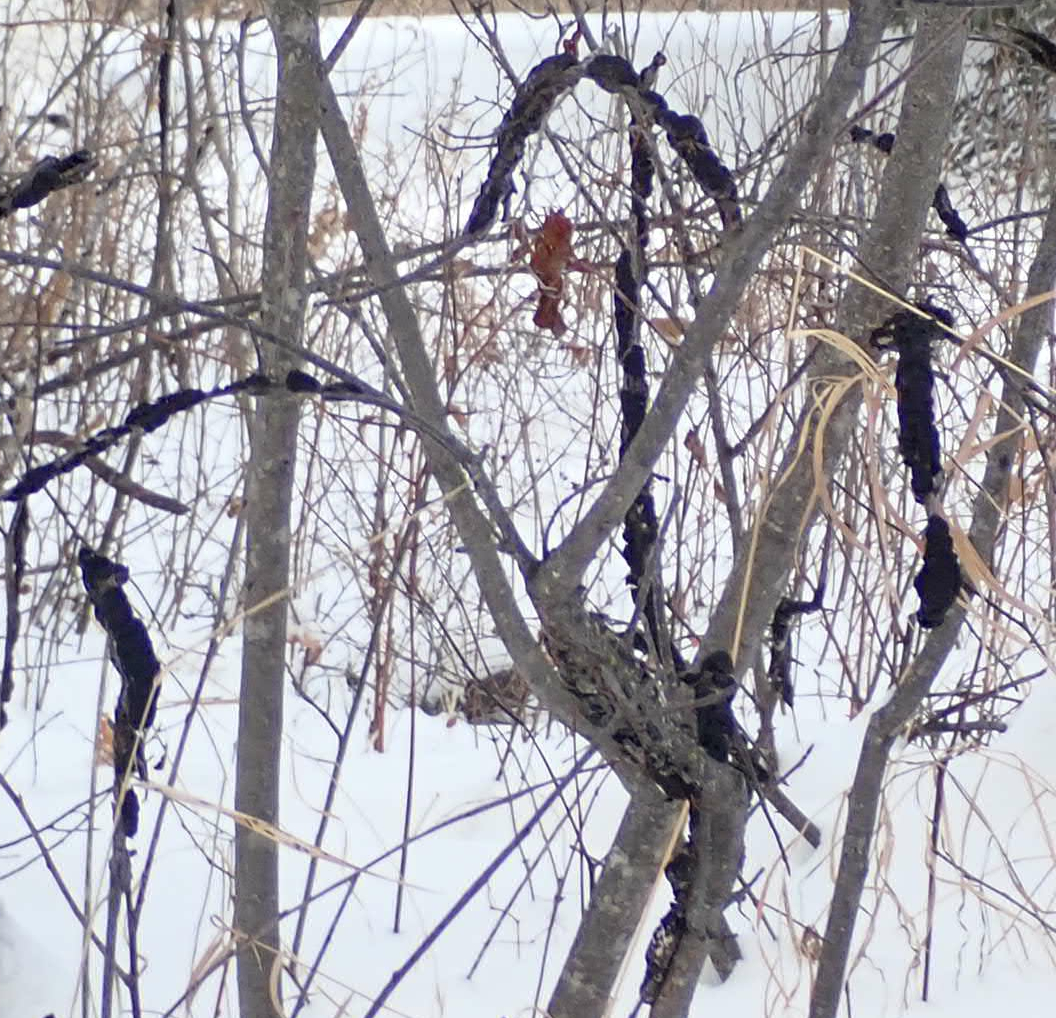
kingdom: Fungi
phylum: Ascomycota
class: Dothideomycetes
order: Venturiales
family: Venturiaceae
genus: Apiosporina
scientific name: Apiosporina morbosa
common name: Black knot
